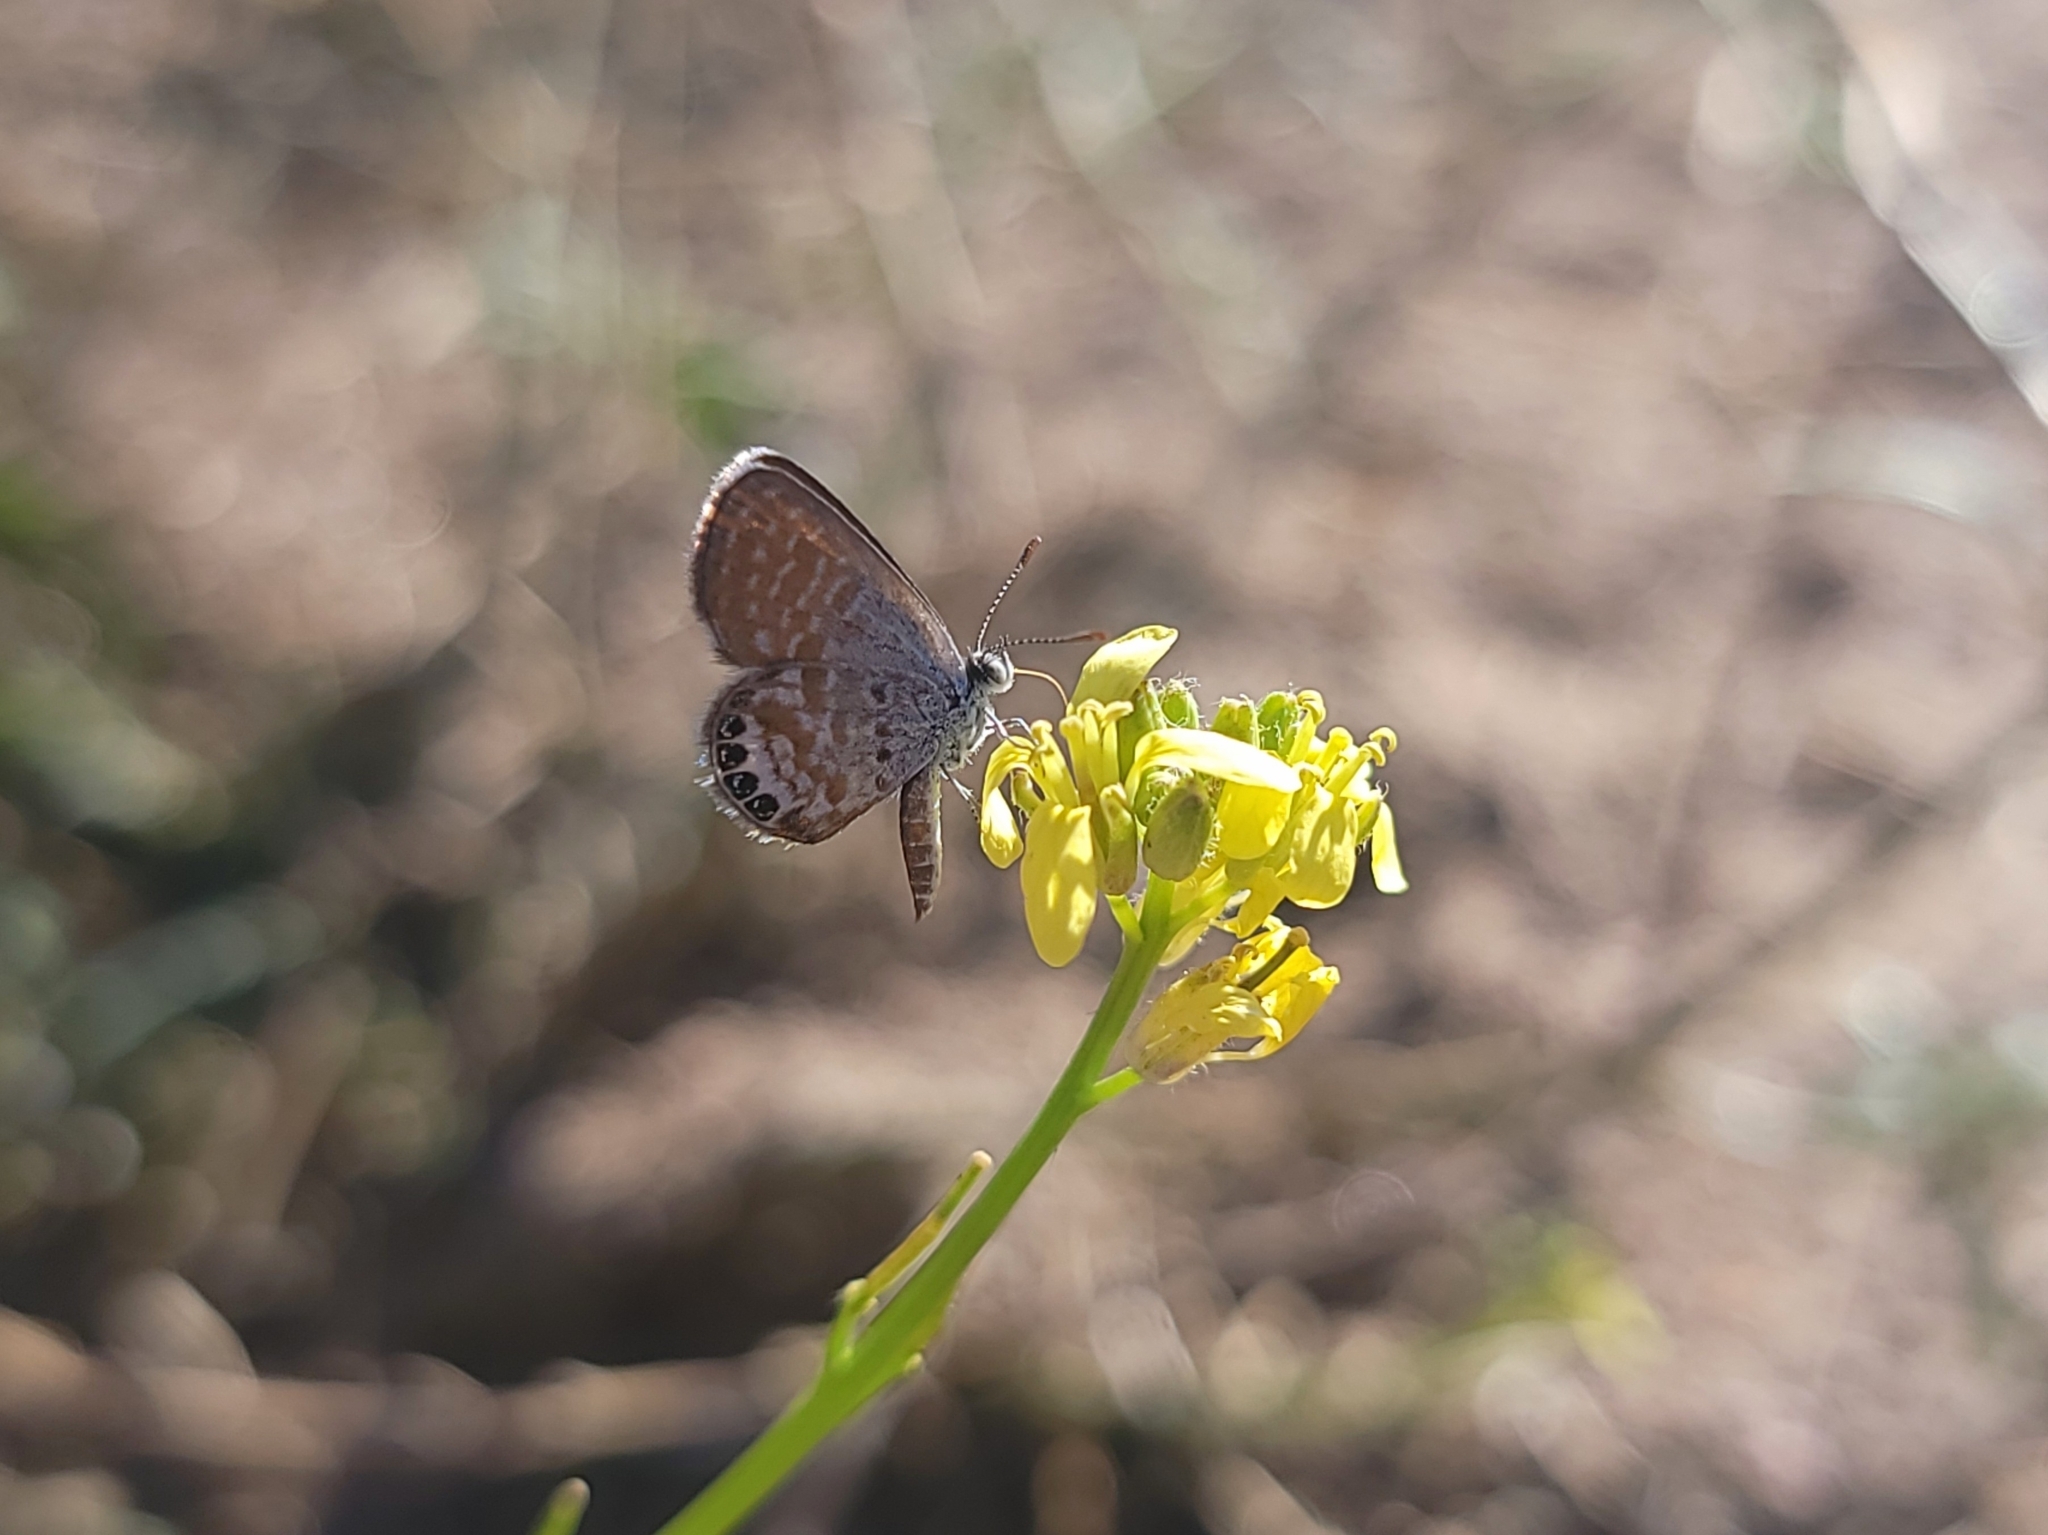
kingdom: Animalia
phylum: Arthropoda
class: Insecta
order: Lepidoptera
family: Lycaenidae
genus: Brephidium
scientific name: Brephidium exilis
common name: Pygmy blue
